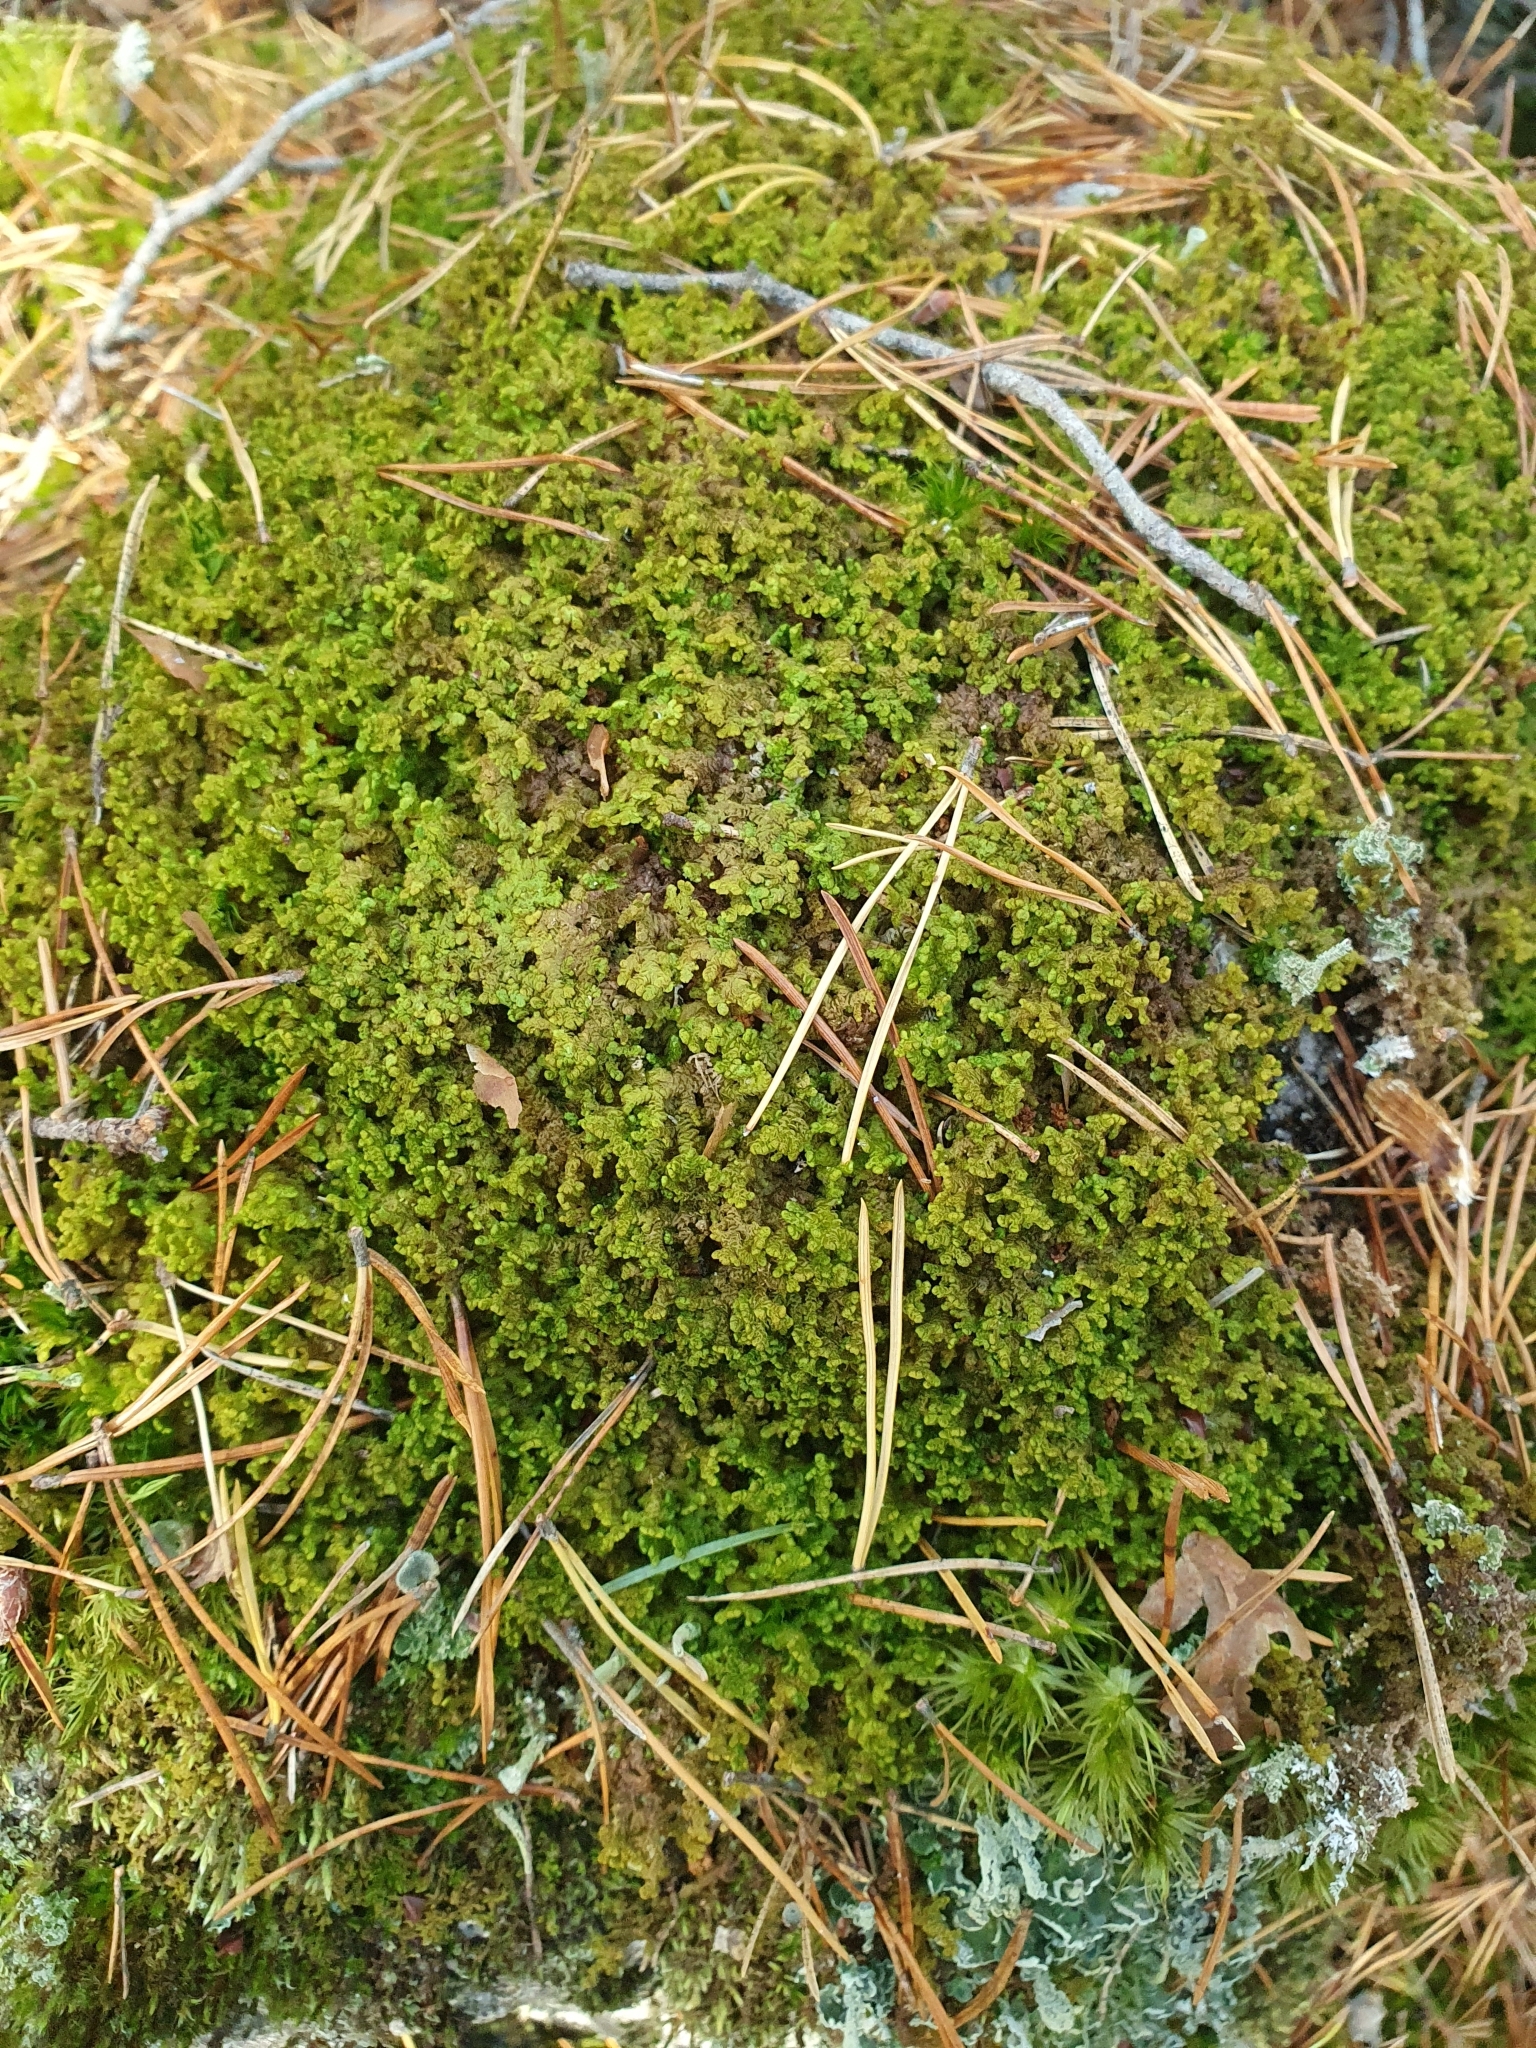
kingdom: Plantae
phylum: Marchantiophyta
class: Jungermanniopsida
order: Ptilidiales
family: Ptilidiaceae
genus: Ptilidium
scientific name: Ptilidium ciliare
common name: Ciliate fringewort
